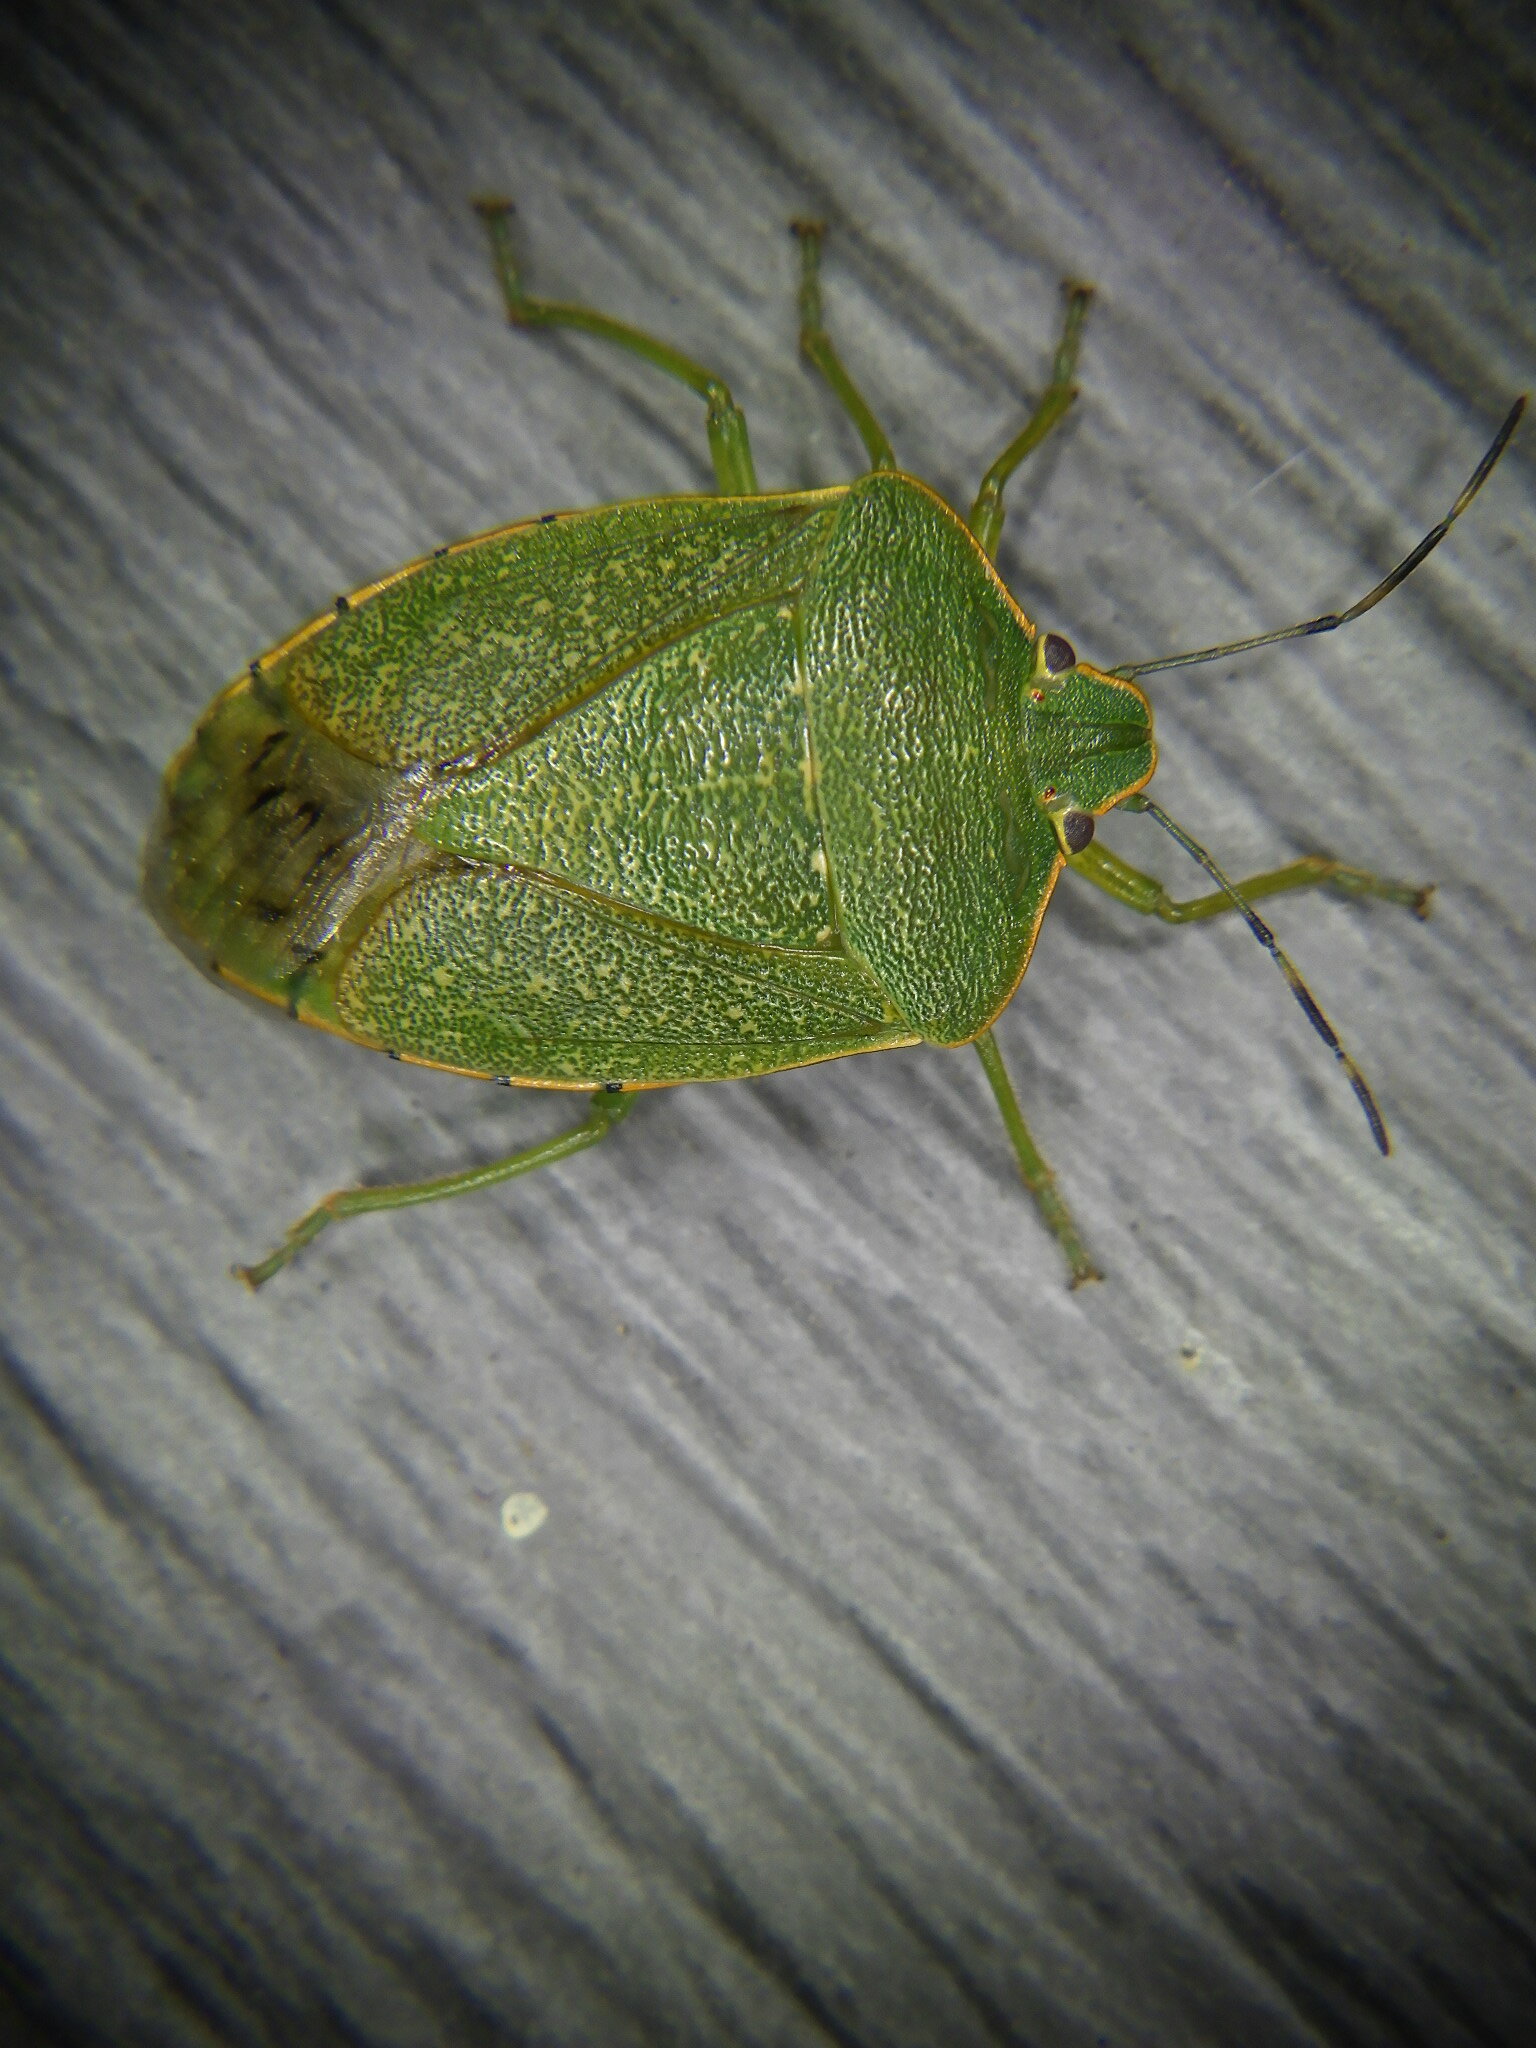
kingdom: Animalia
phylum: Arthropoda
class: Insecta
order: Hemiptera
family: Pentatomidae
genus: Chinavia
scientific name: Chinavia hilaris
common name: Green stink bug
